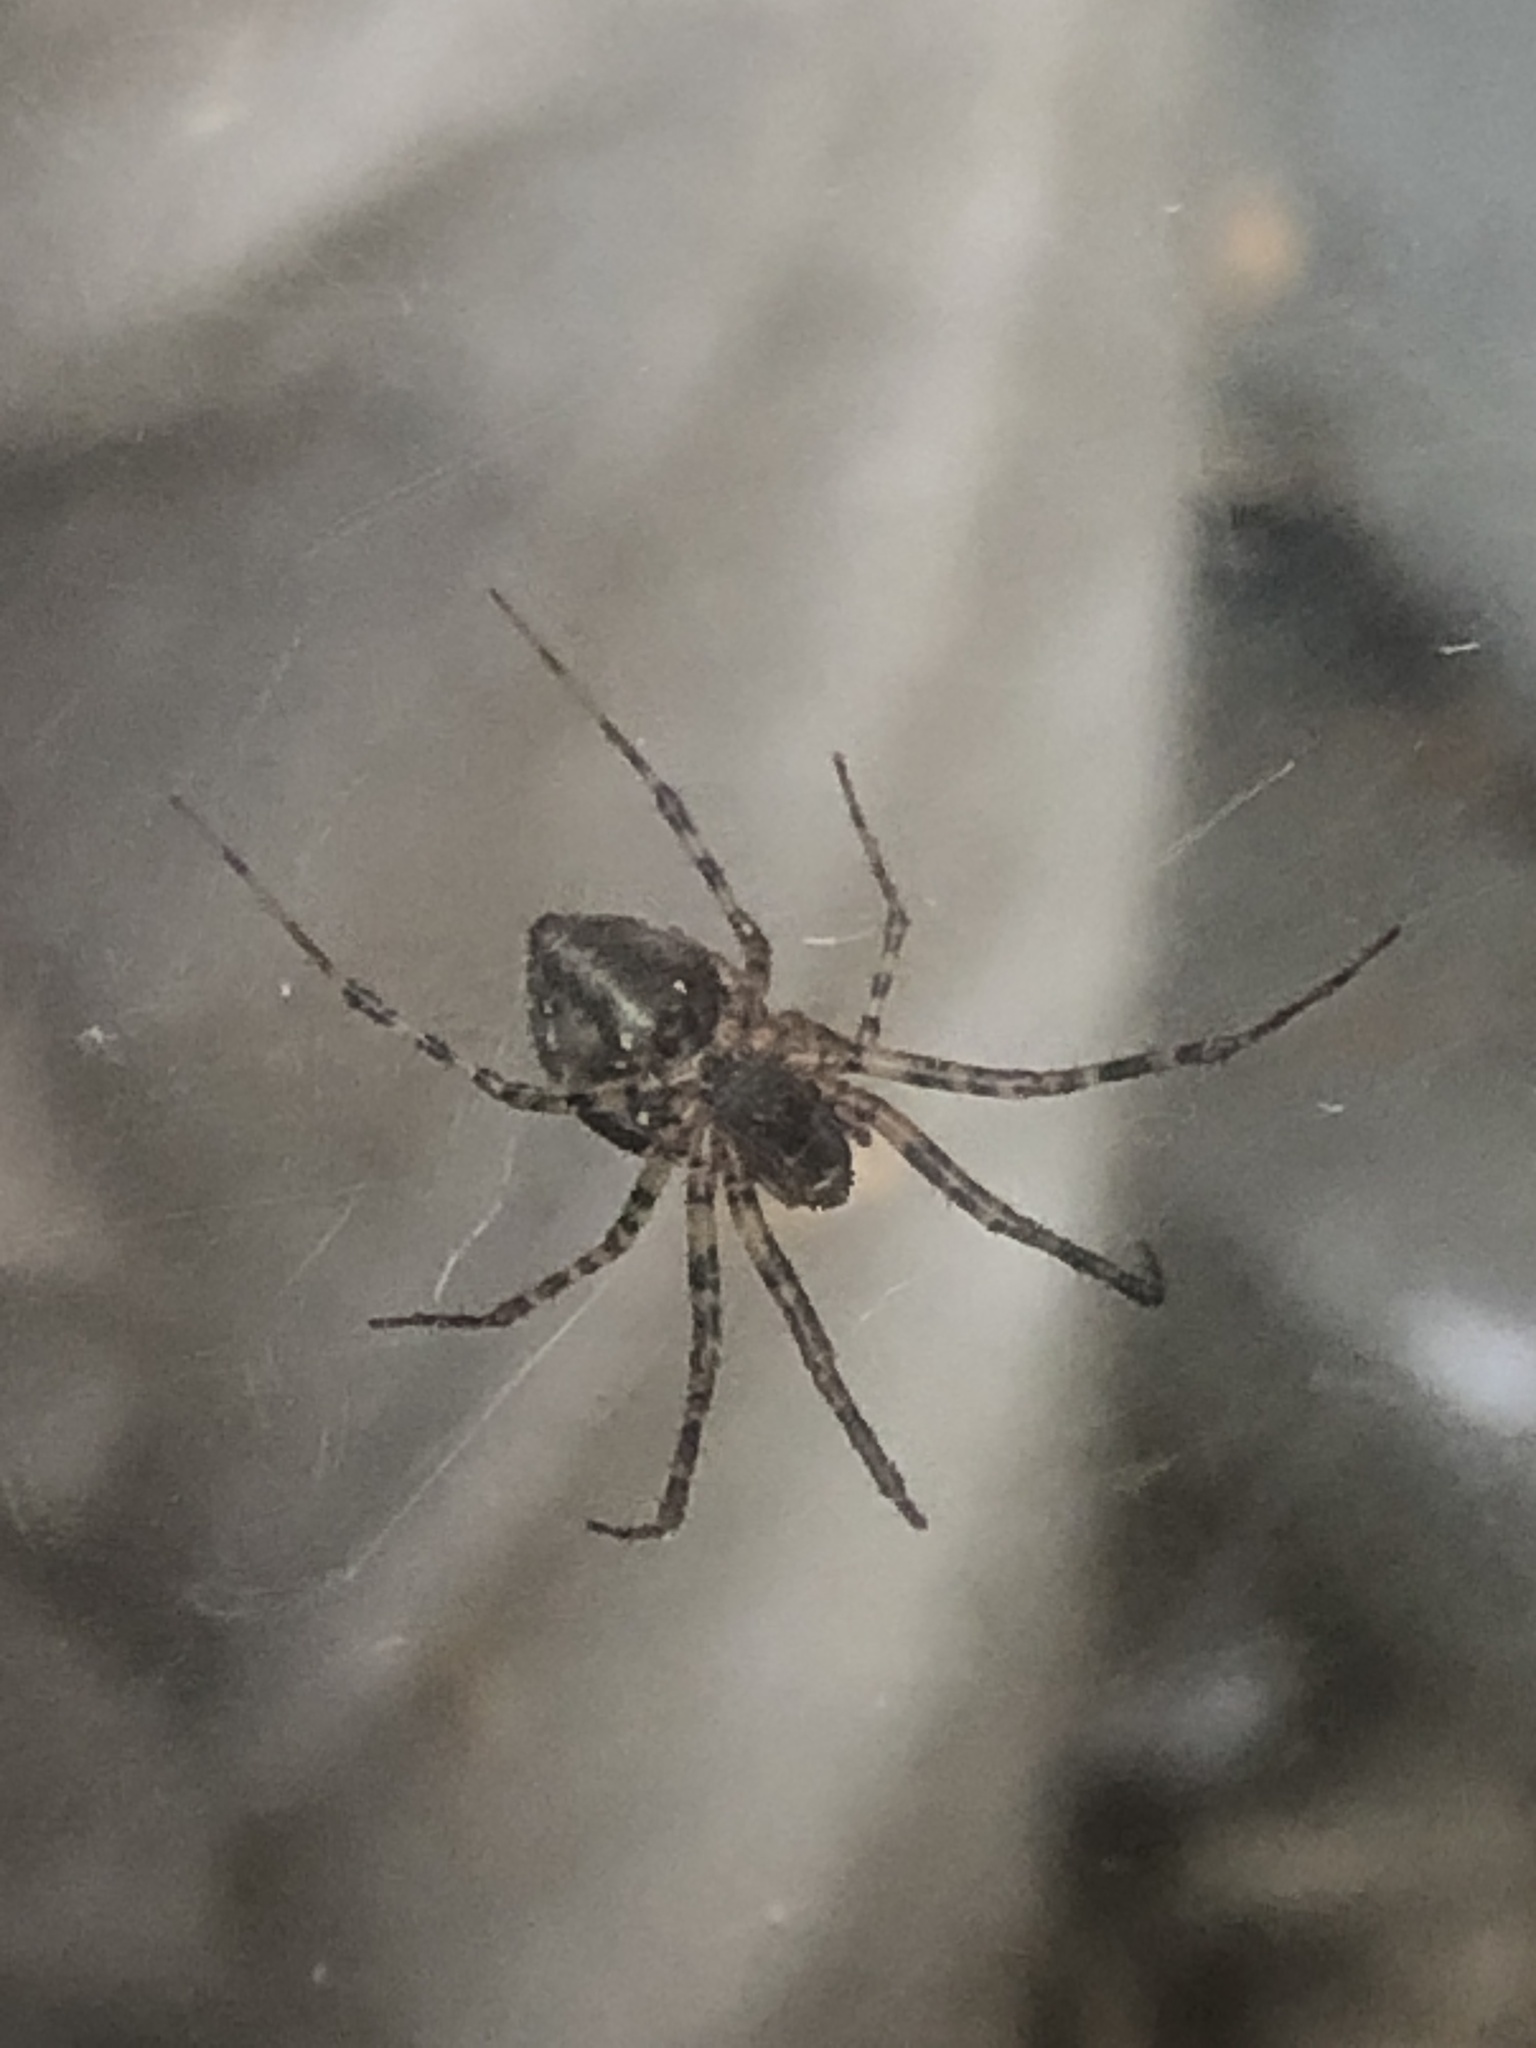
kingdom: Animalia
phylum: Arthropoda
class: Arachnida
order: Araneae
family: Linyphiidae
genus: Neriene
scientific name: Neriene montana
